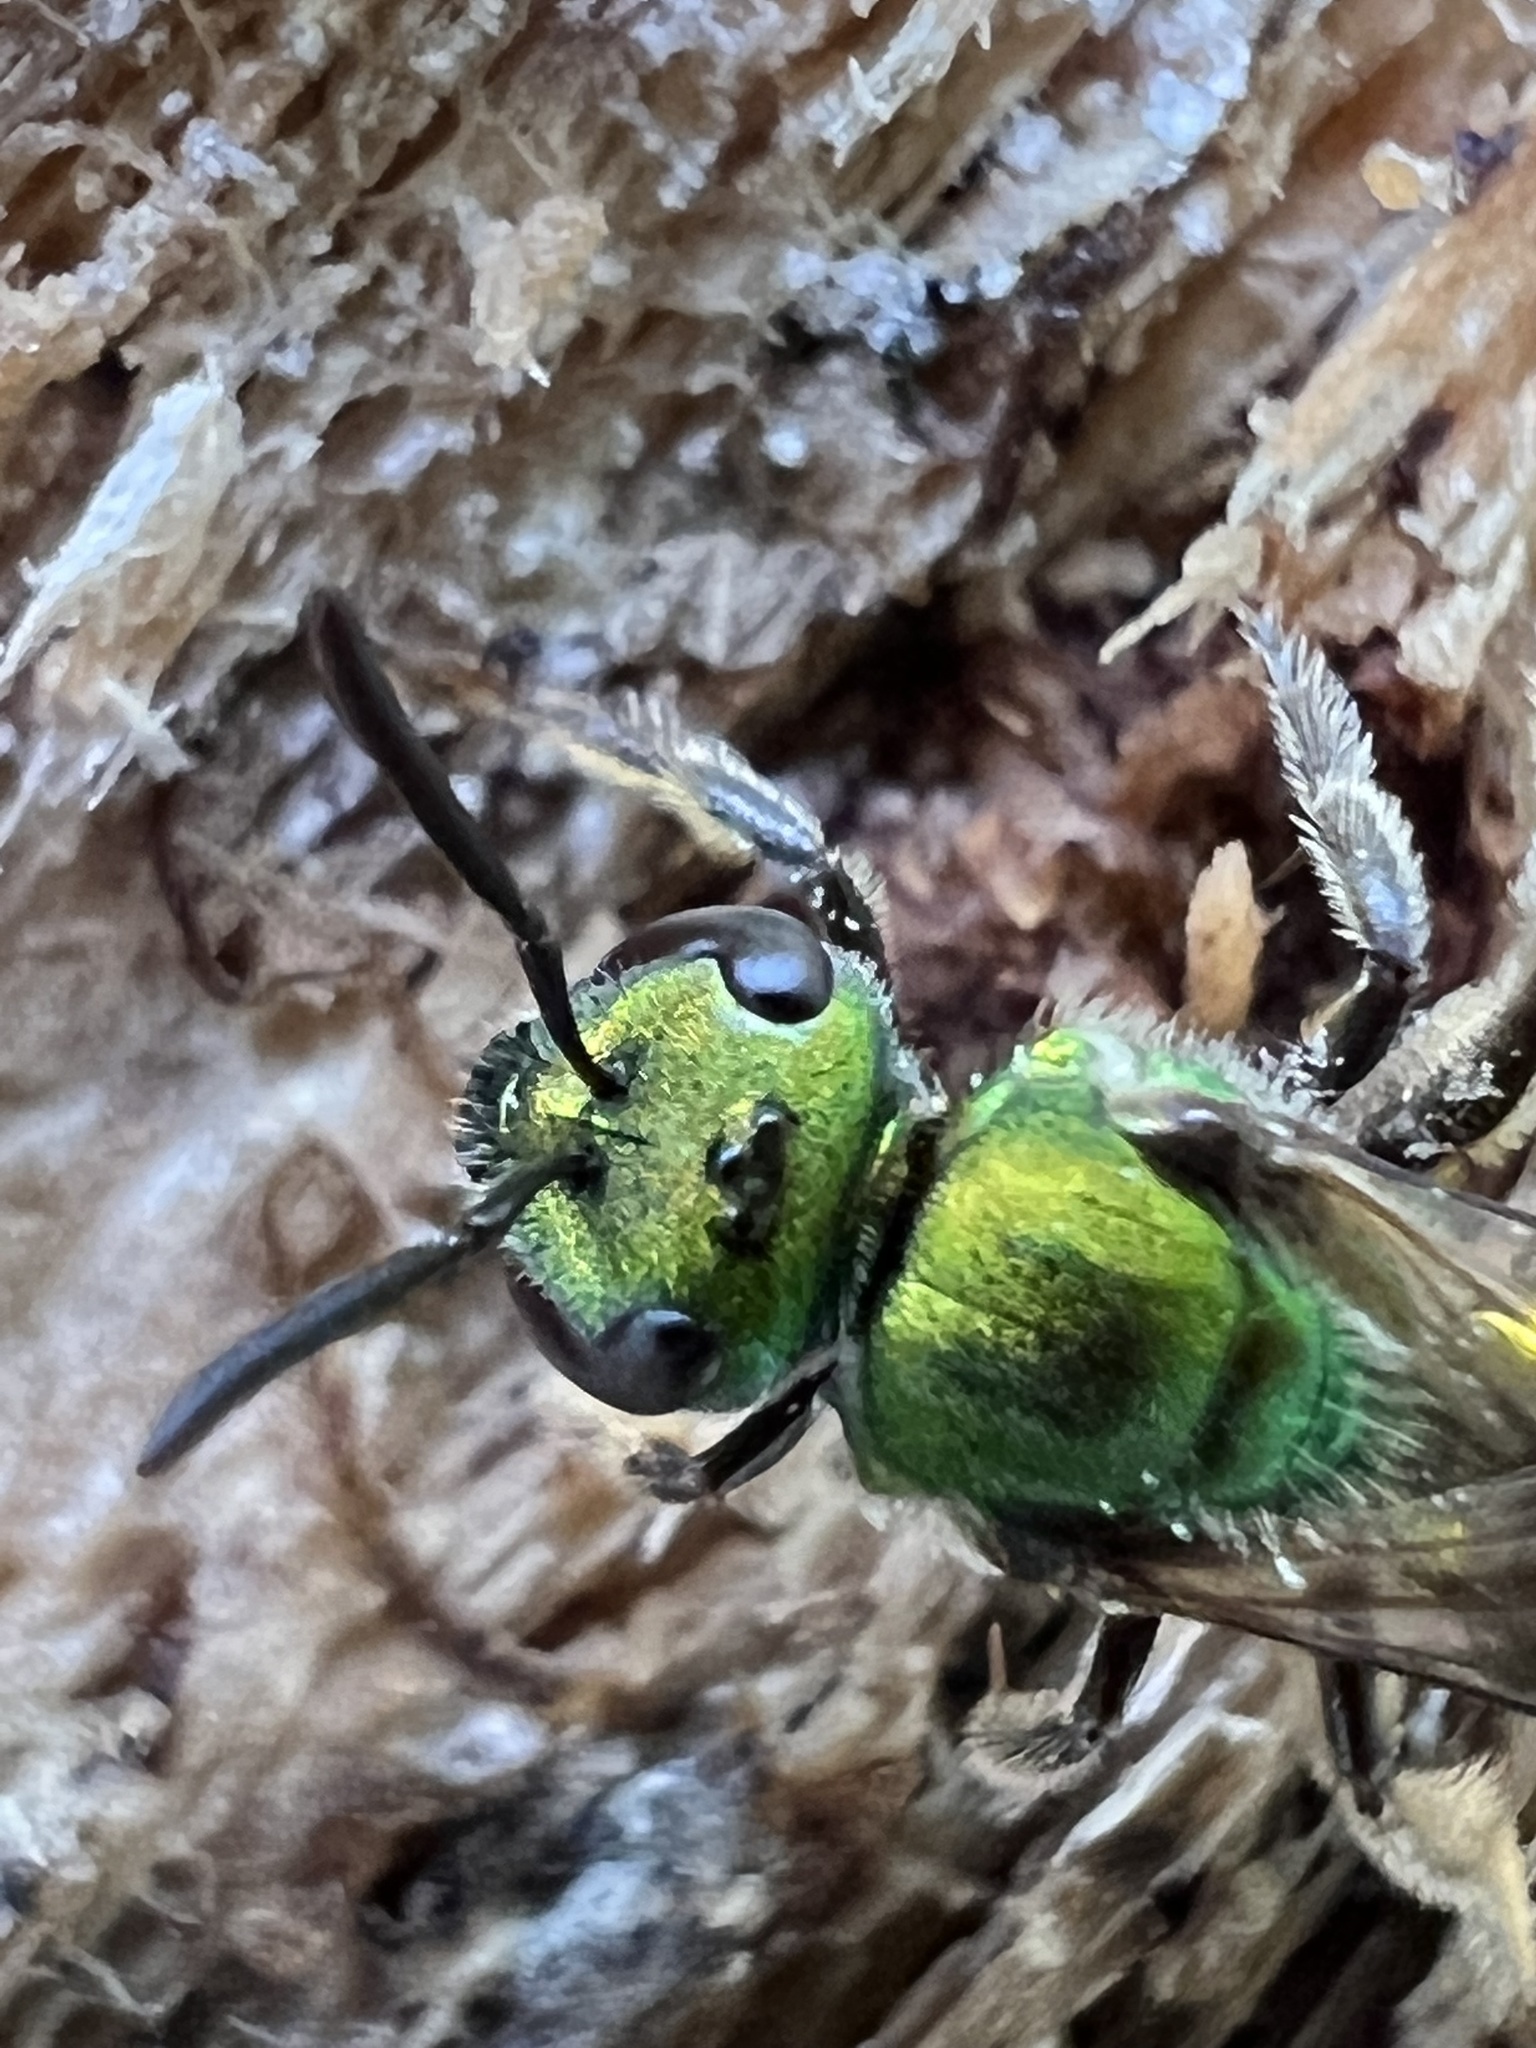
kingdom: Animalia
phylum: Arthropoda
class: Insecta
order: Hymenoptera
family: Halictidae
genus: Augochlora
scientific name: Augochlora pura
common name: Pure green sweat bee
